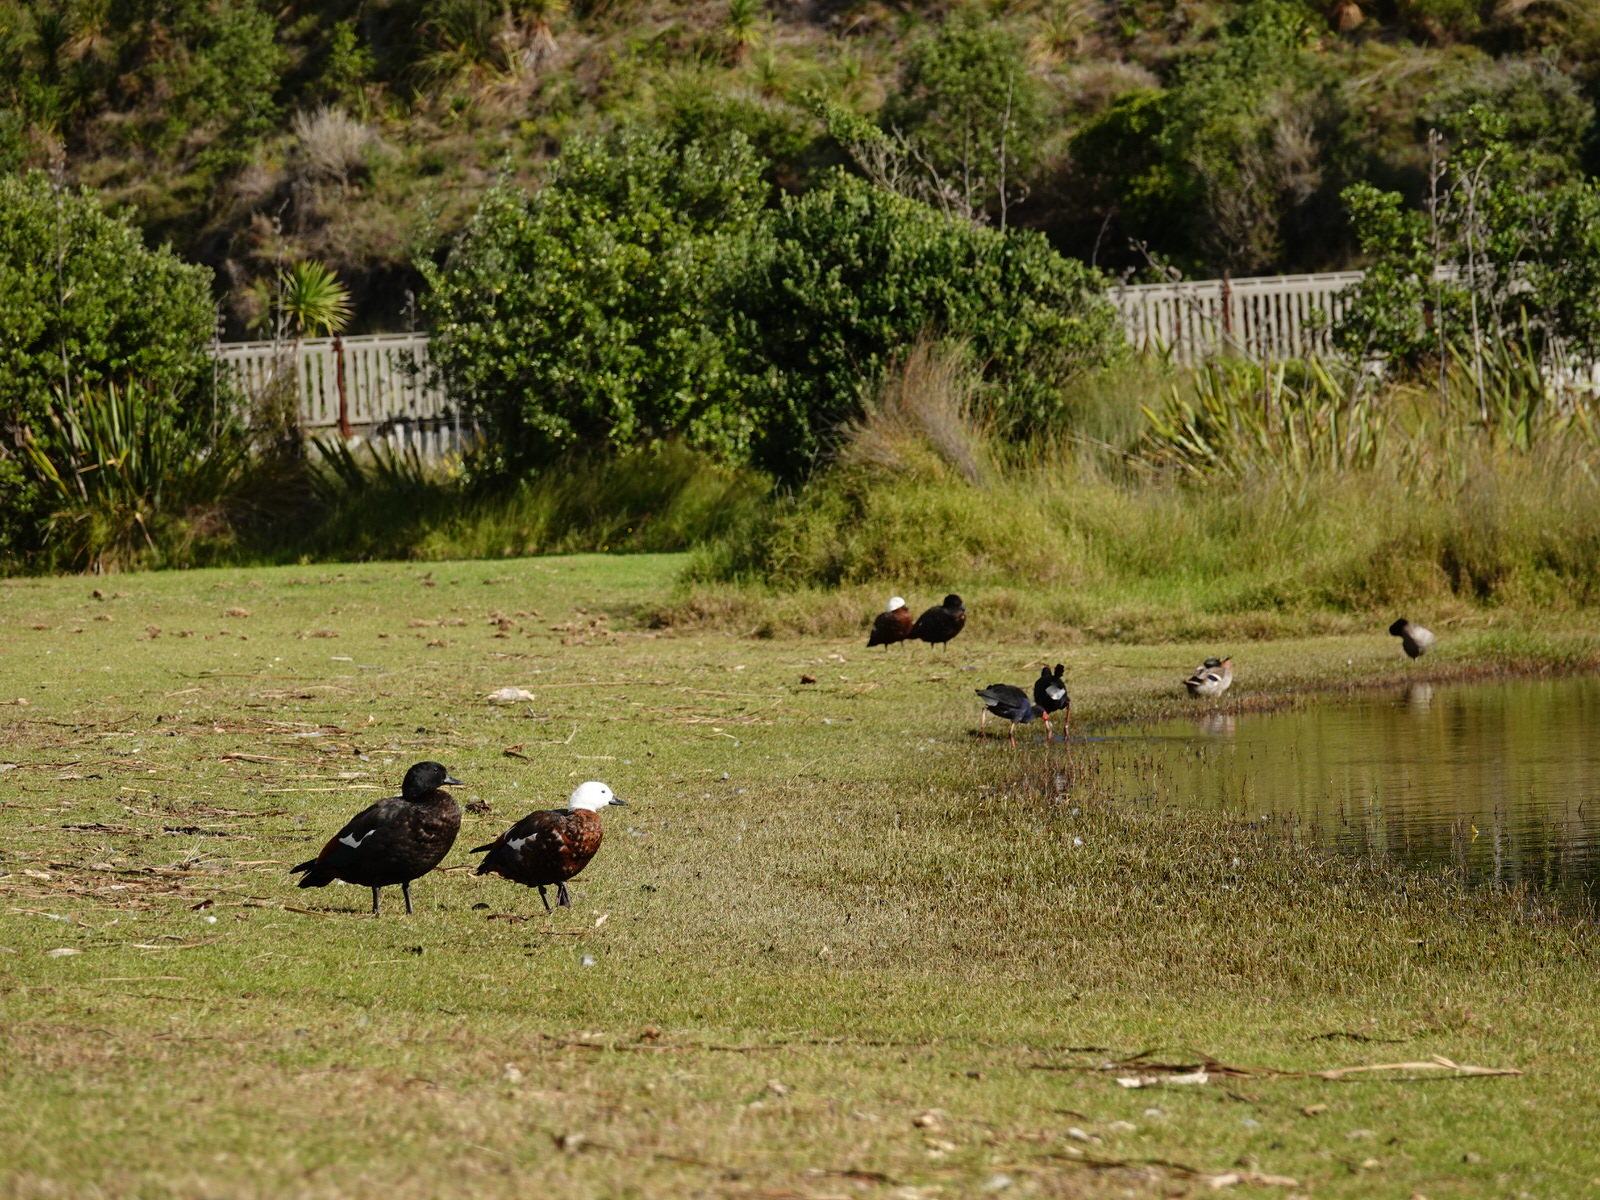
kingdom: Animalia
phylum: Chordata
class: Aves
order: Anseriformes
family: Anatidae
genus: Tadorna
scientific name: Tadorna variegata
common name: Paradise shelduck
